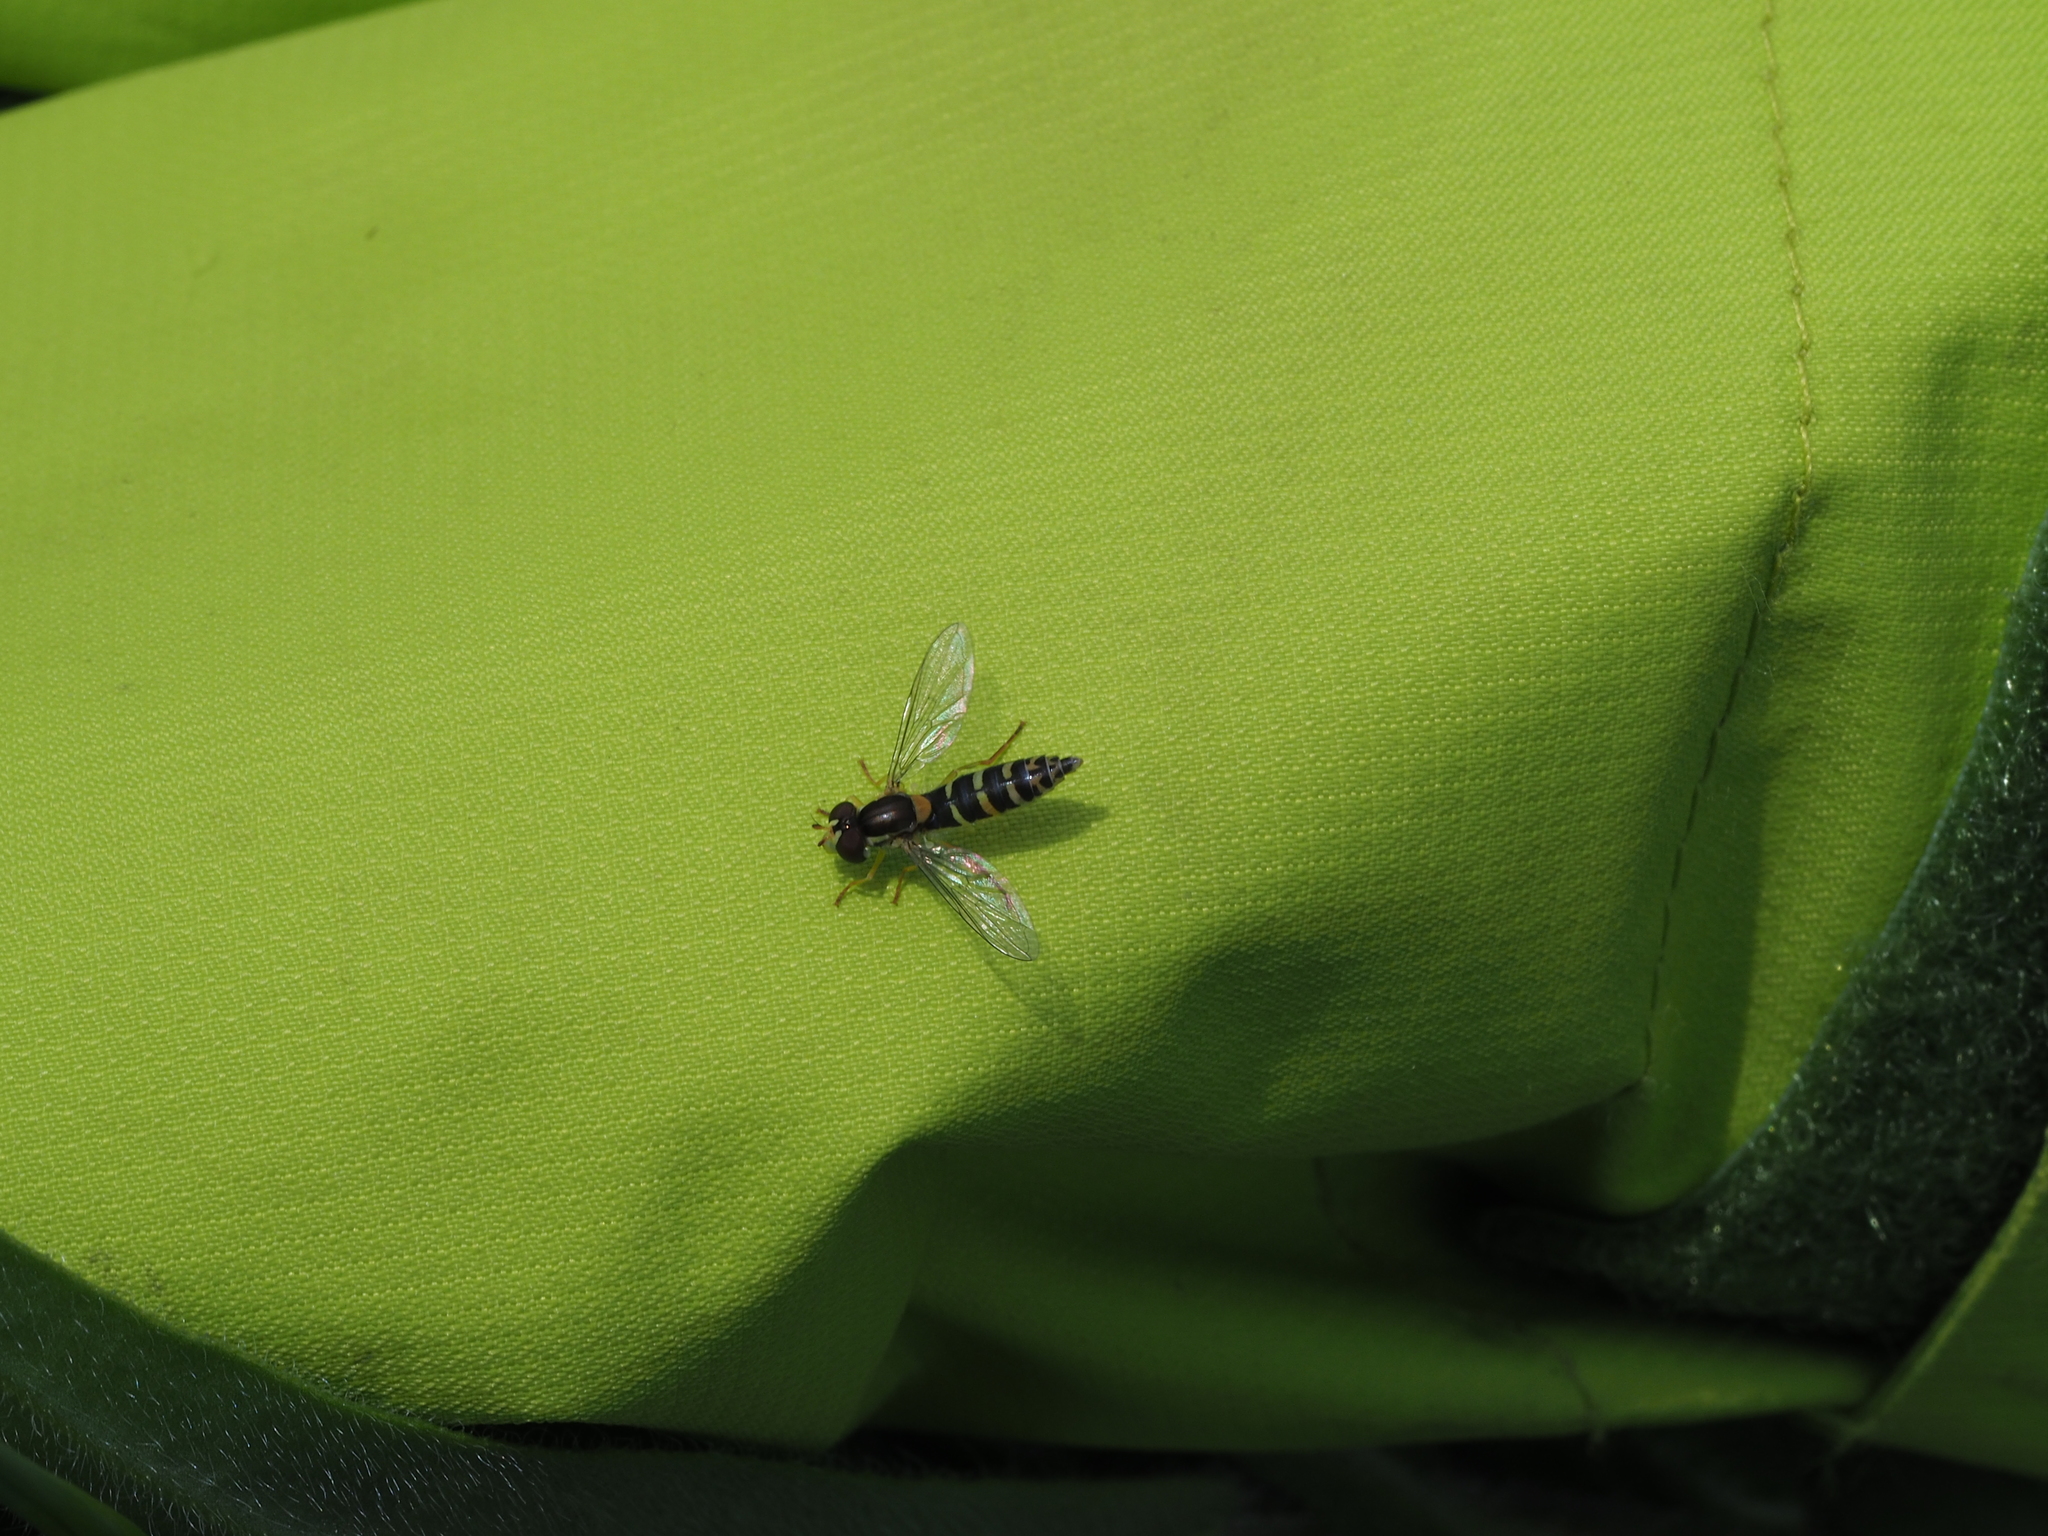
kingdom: Animalia
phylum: Arthropoda
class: Insecta
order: Diptera
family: Syrphidae
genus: Sphaerophoria
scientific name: Sphaerophoria
